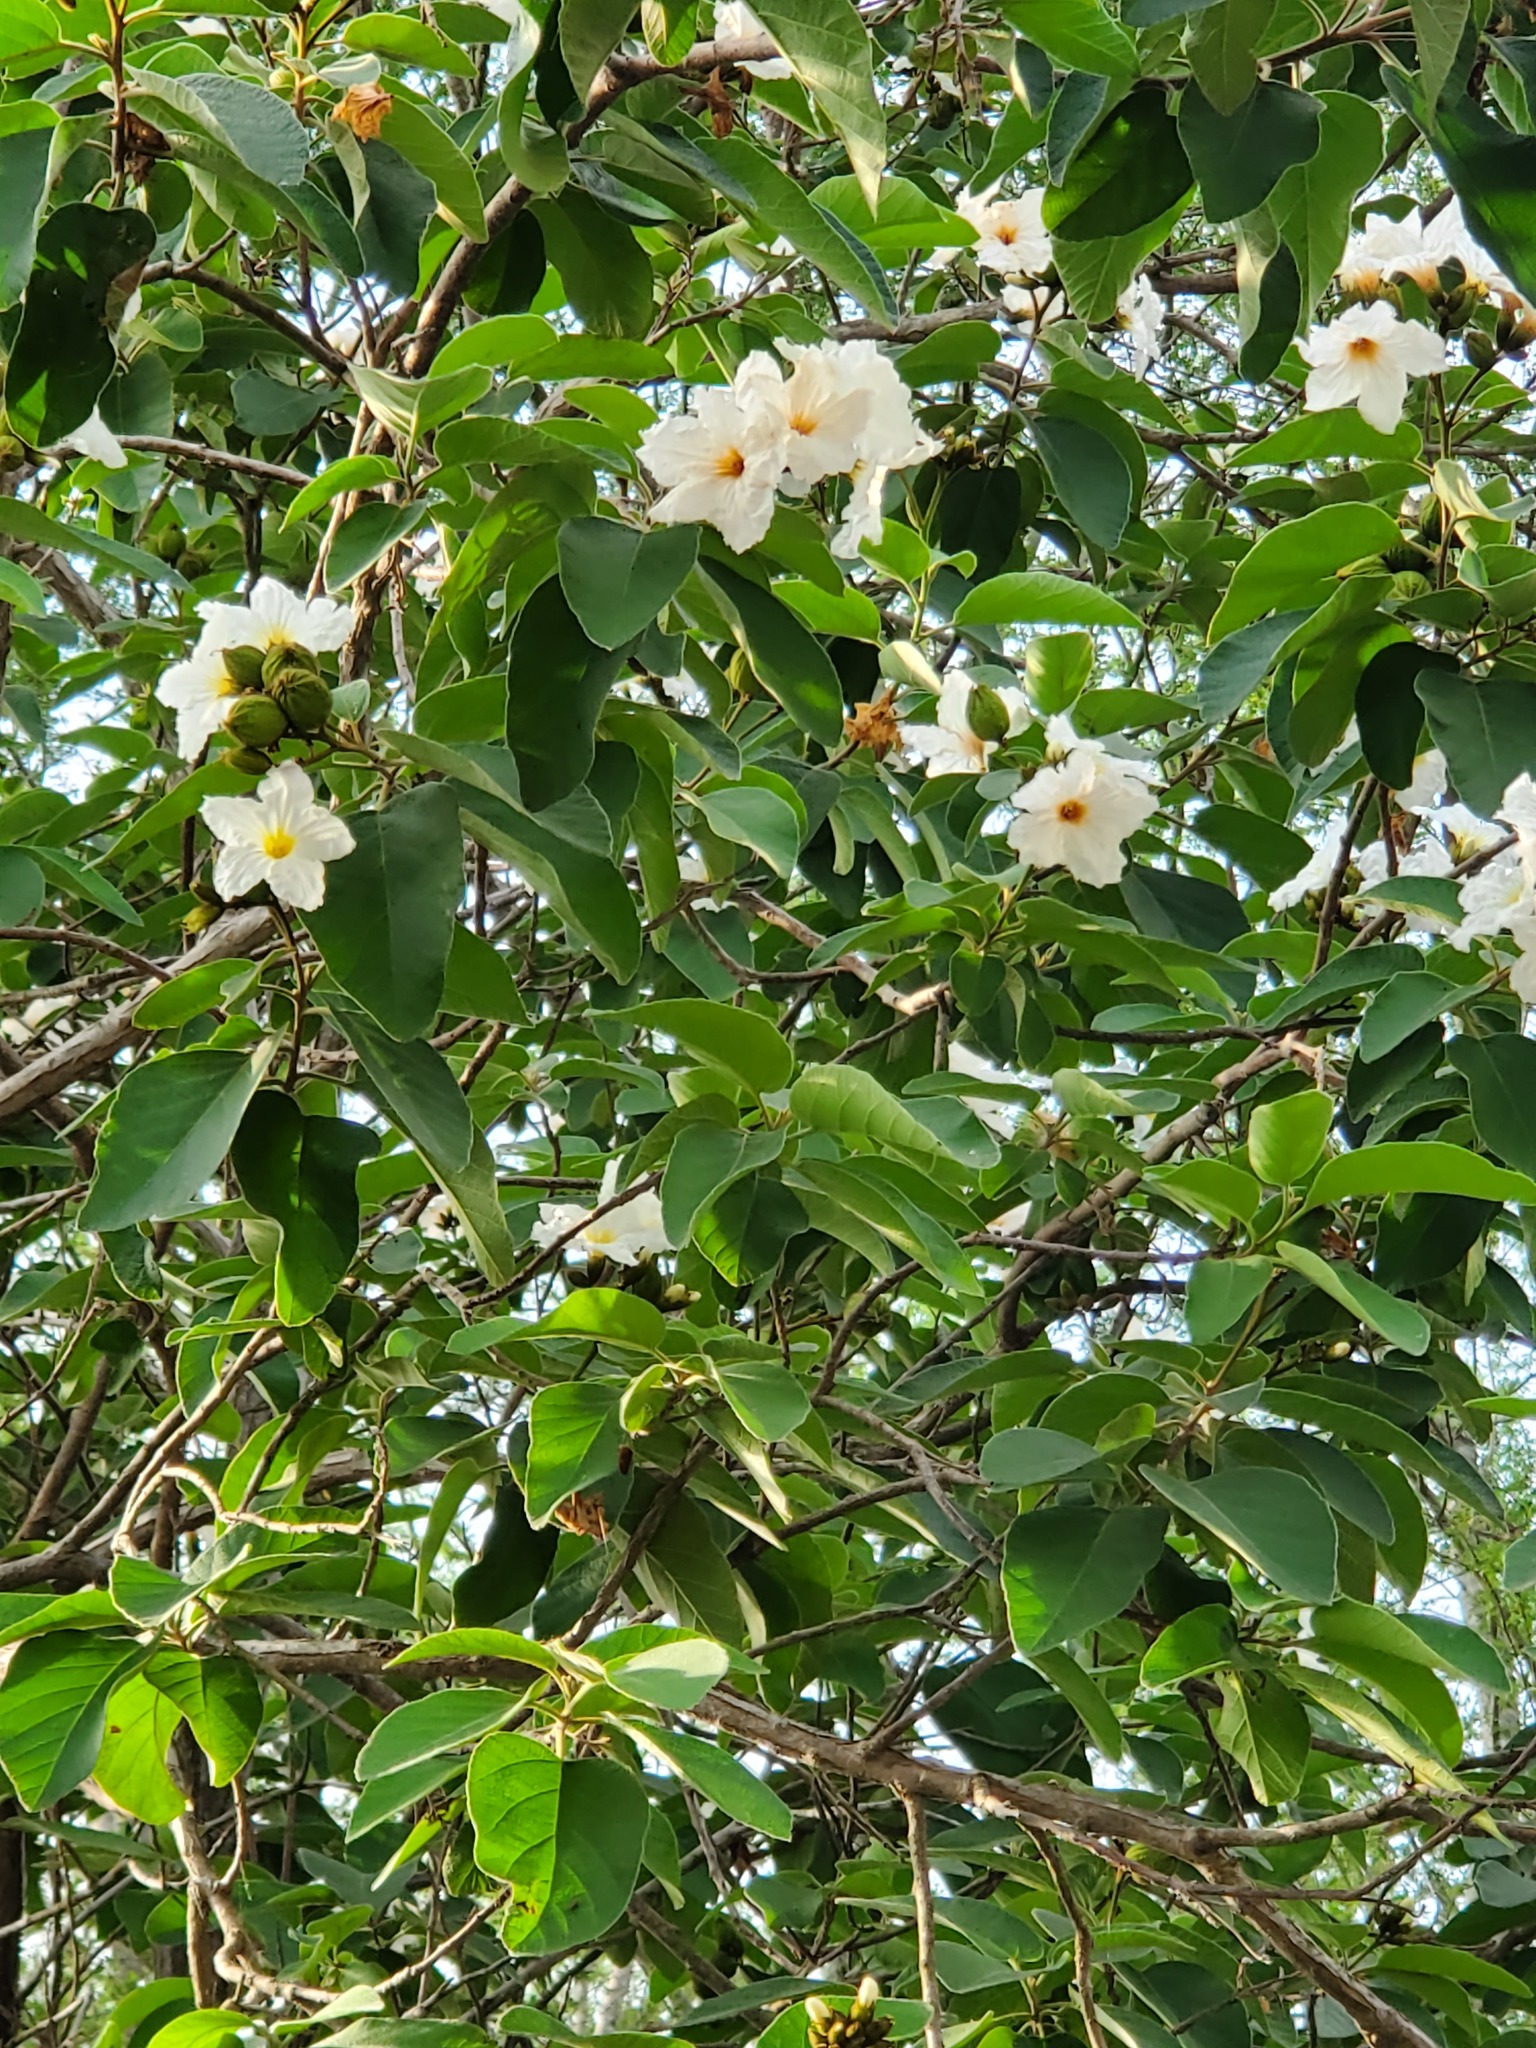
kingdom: Plantae
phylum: Tracheophyta
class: Magnoliopsida
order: Boraginales
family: Cordiaceae
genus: Cordia
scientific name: Cordia boissieri
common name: Mexican-olive
